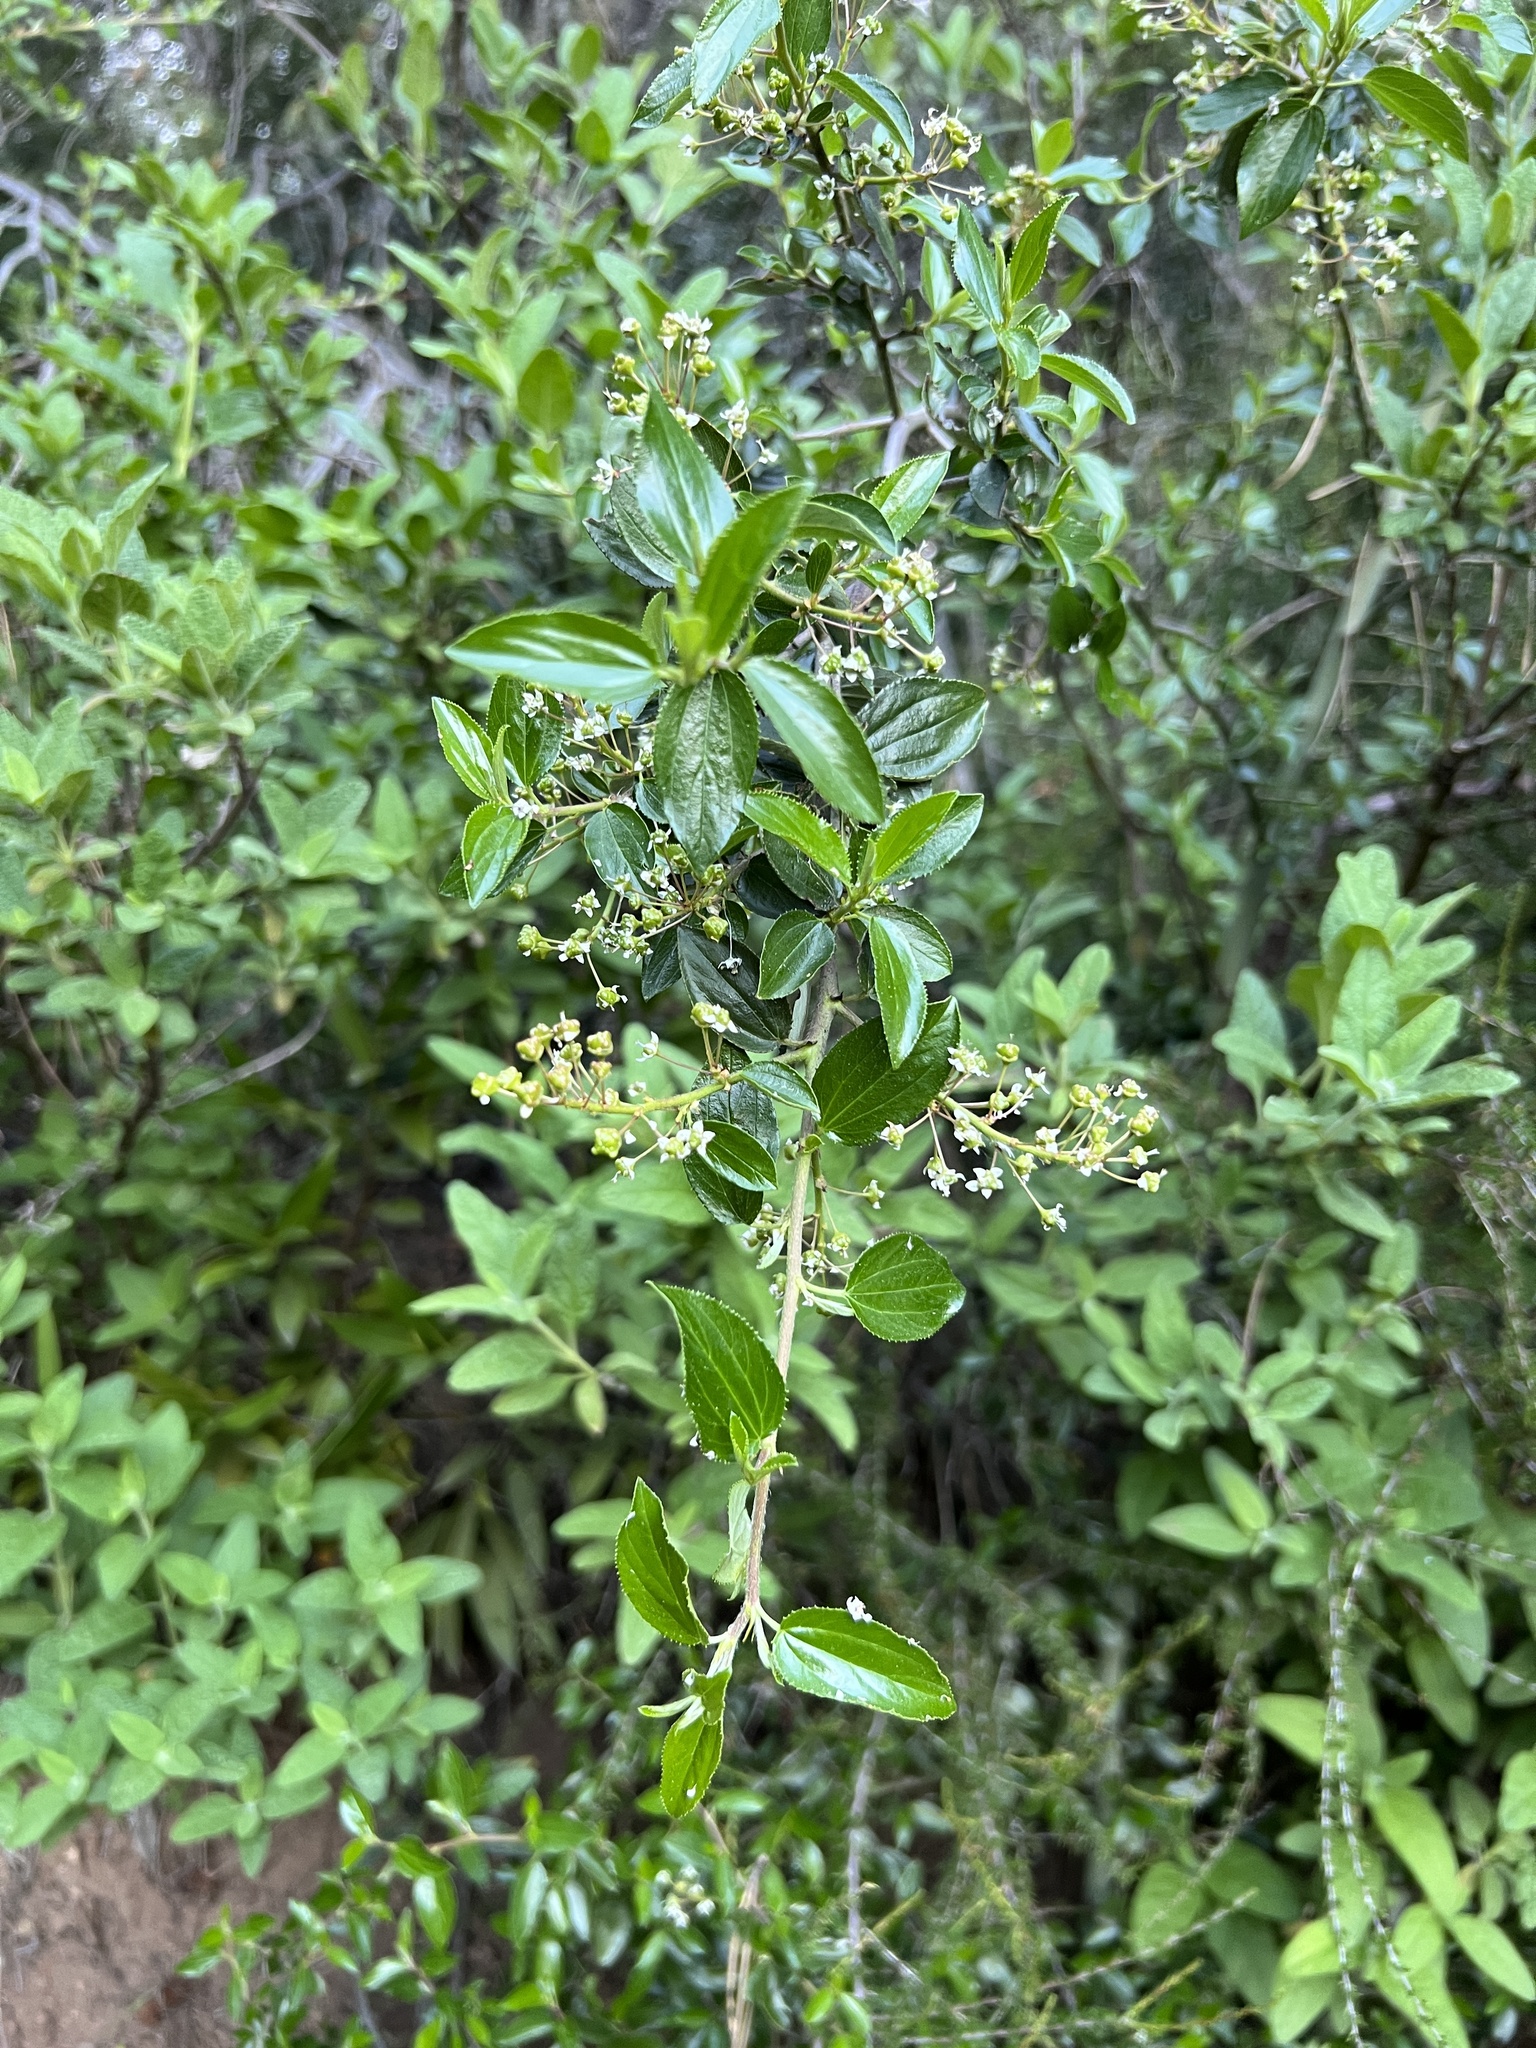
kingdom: Plantae
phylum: Tracheophyta
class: Magnoliopsida
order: Rosales
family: Rhamnaceae
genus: Ceanothus
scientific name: Ceanothus oliganthus
